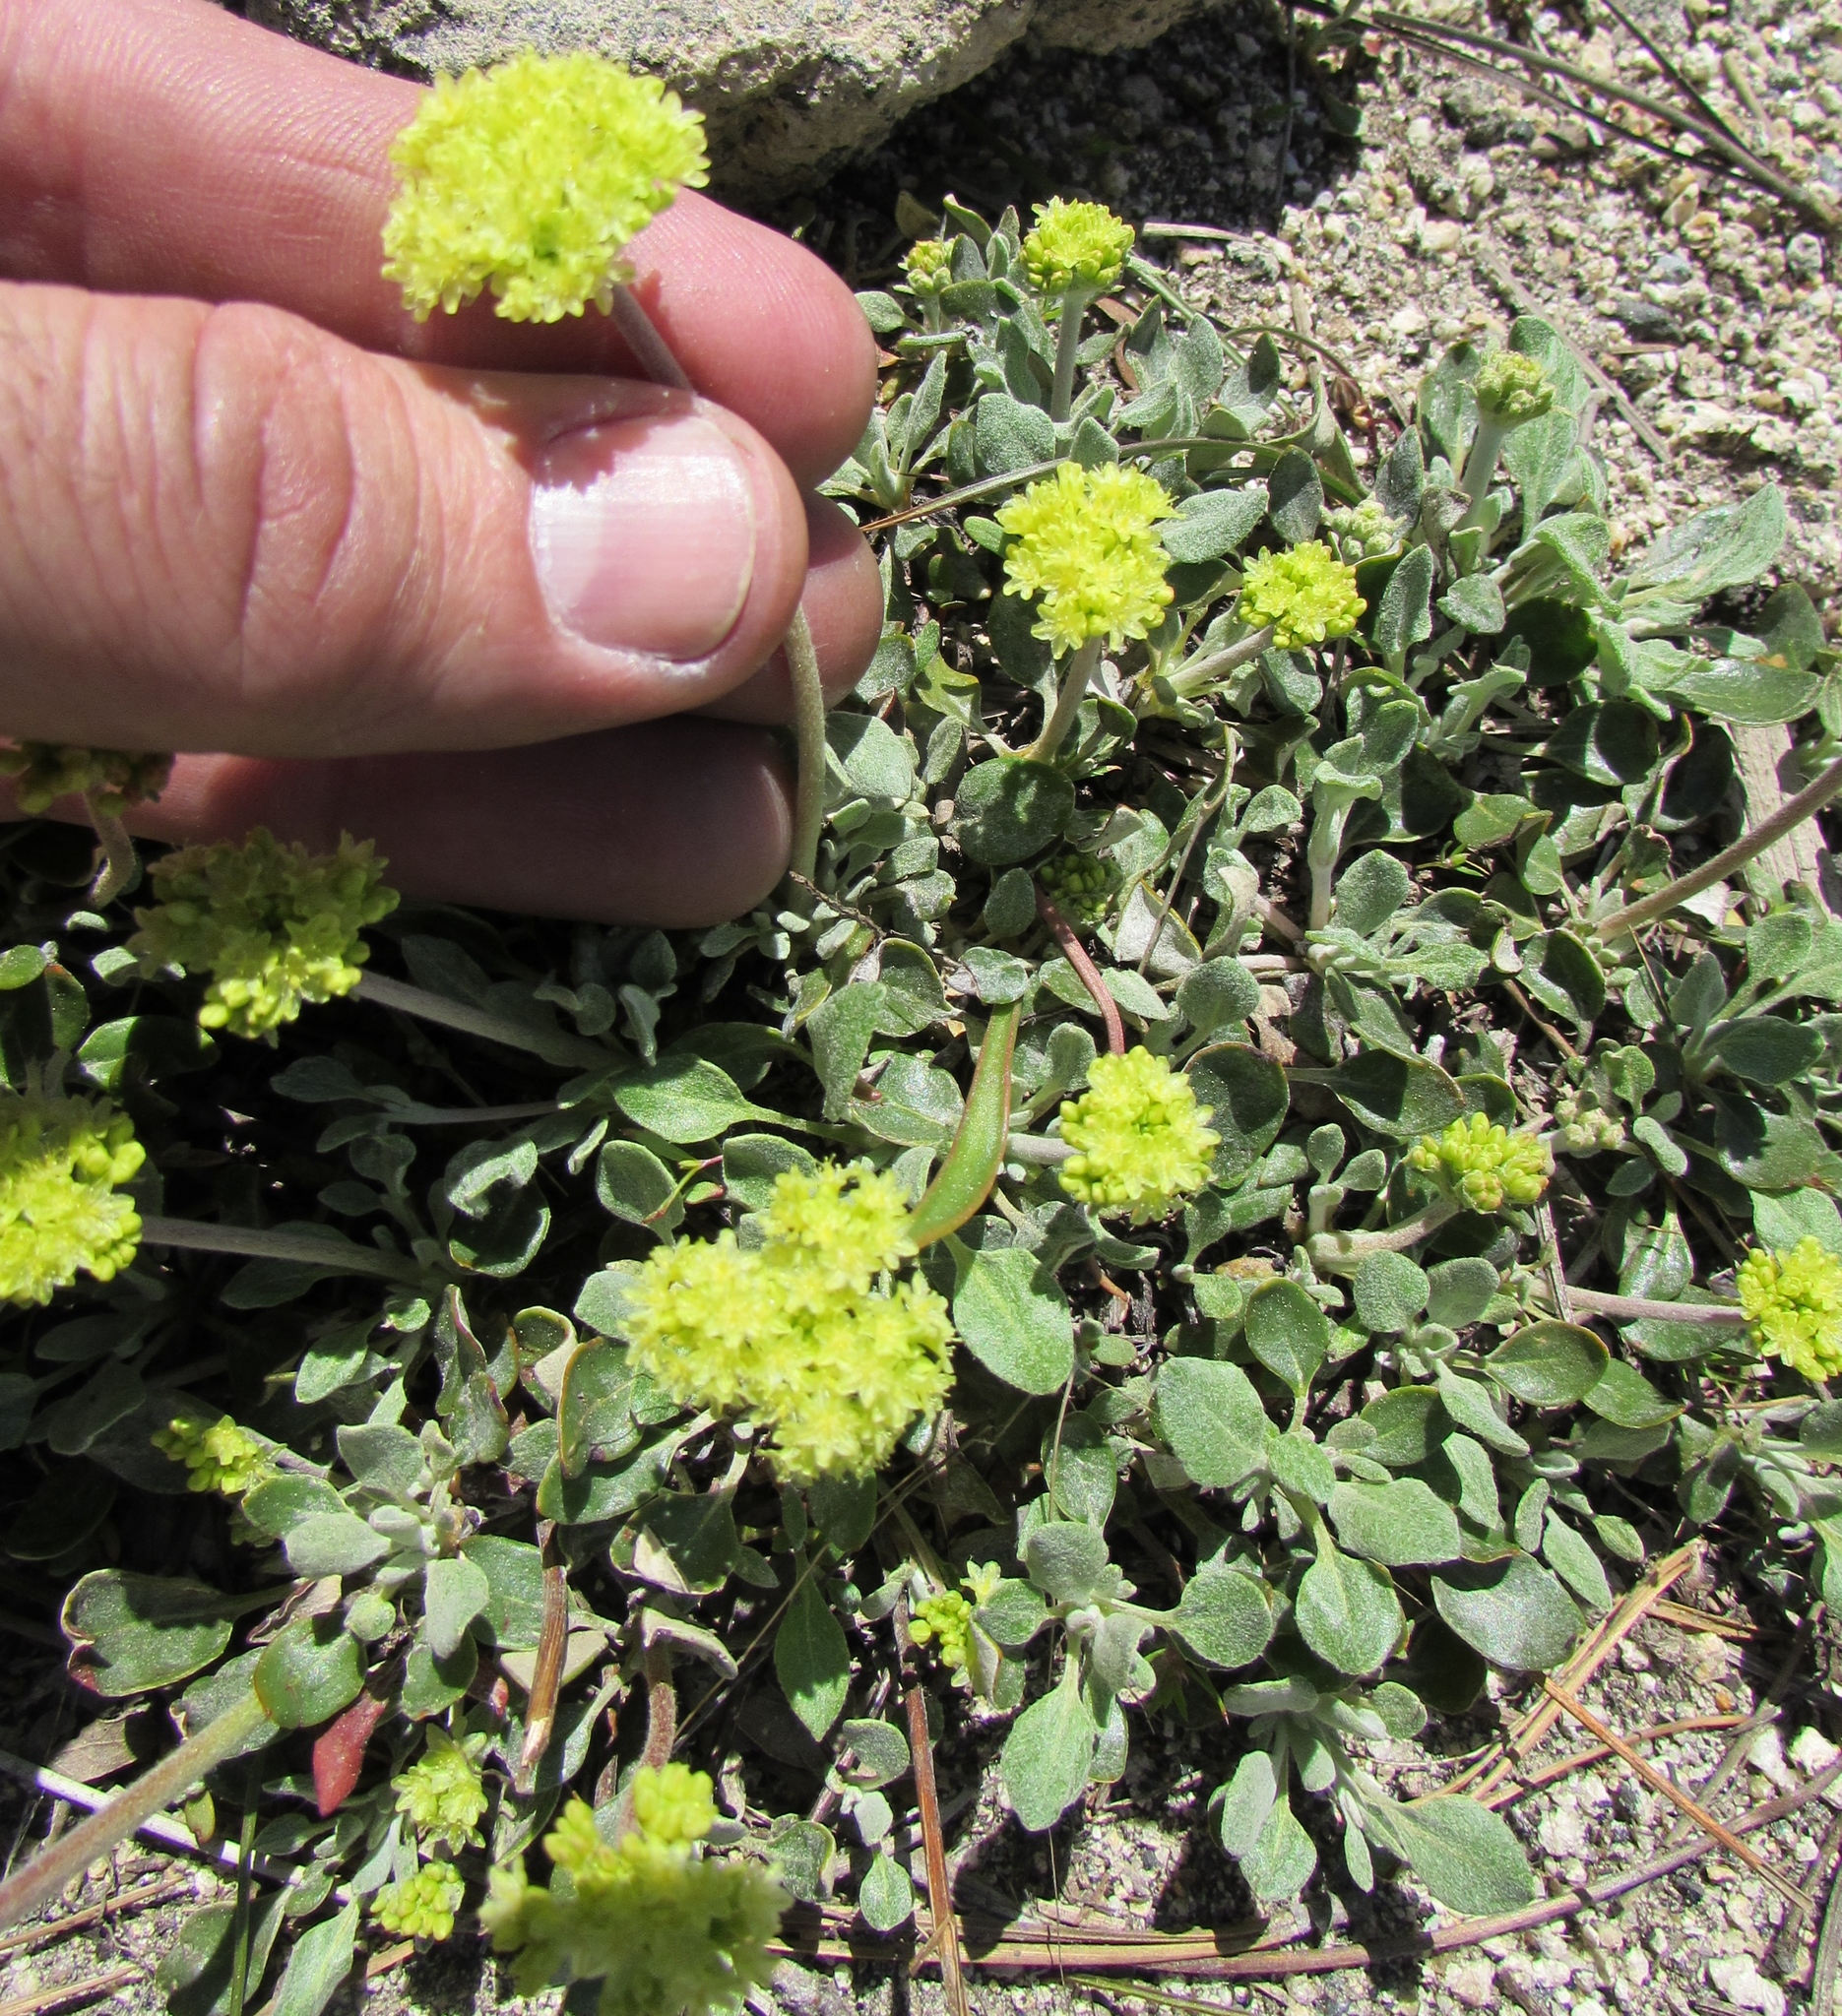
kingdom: Plantae
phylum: Tracheophyta
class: Magnoliopsida
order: Caryophyllales
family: Polygonaceae
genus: Eriogonum
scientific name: Eriogonum umbellatum
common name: Sulfur-buckwheat
